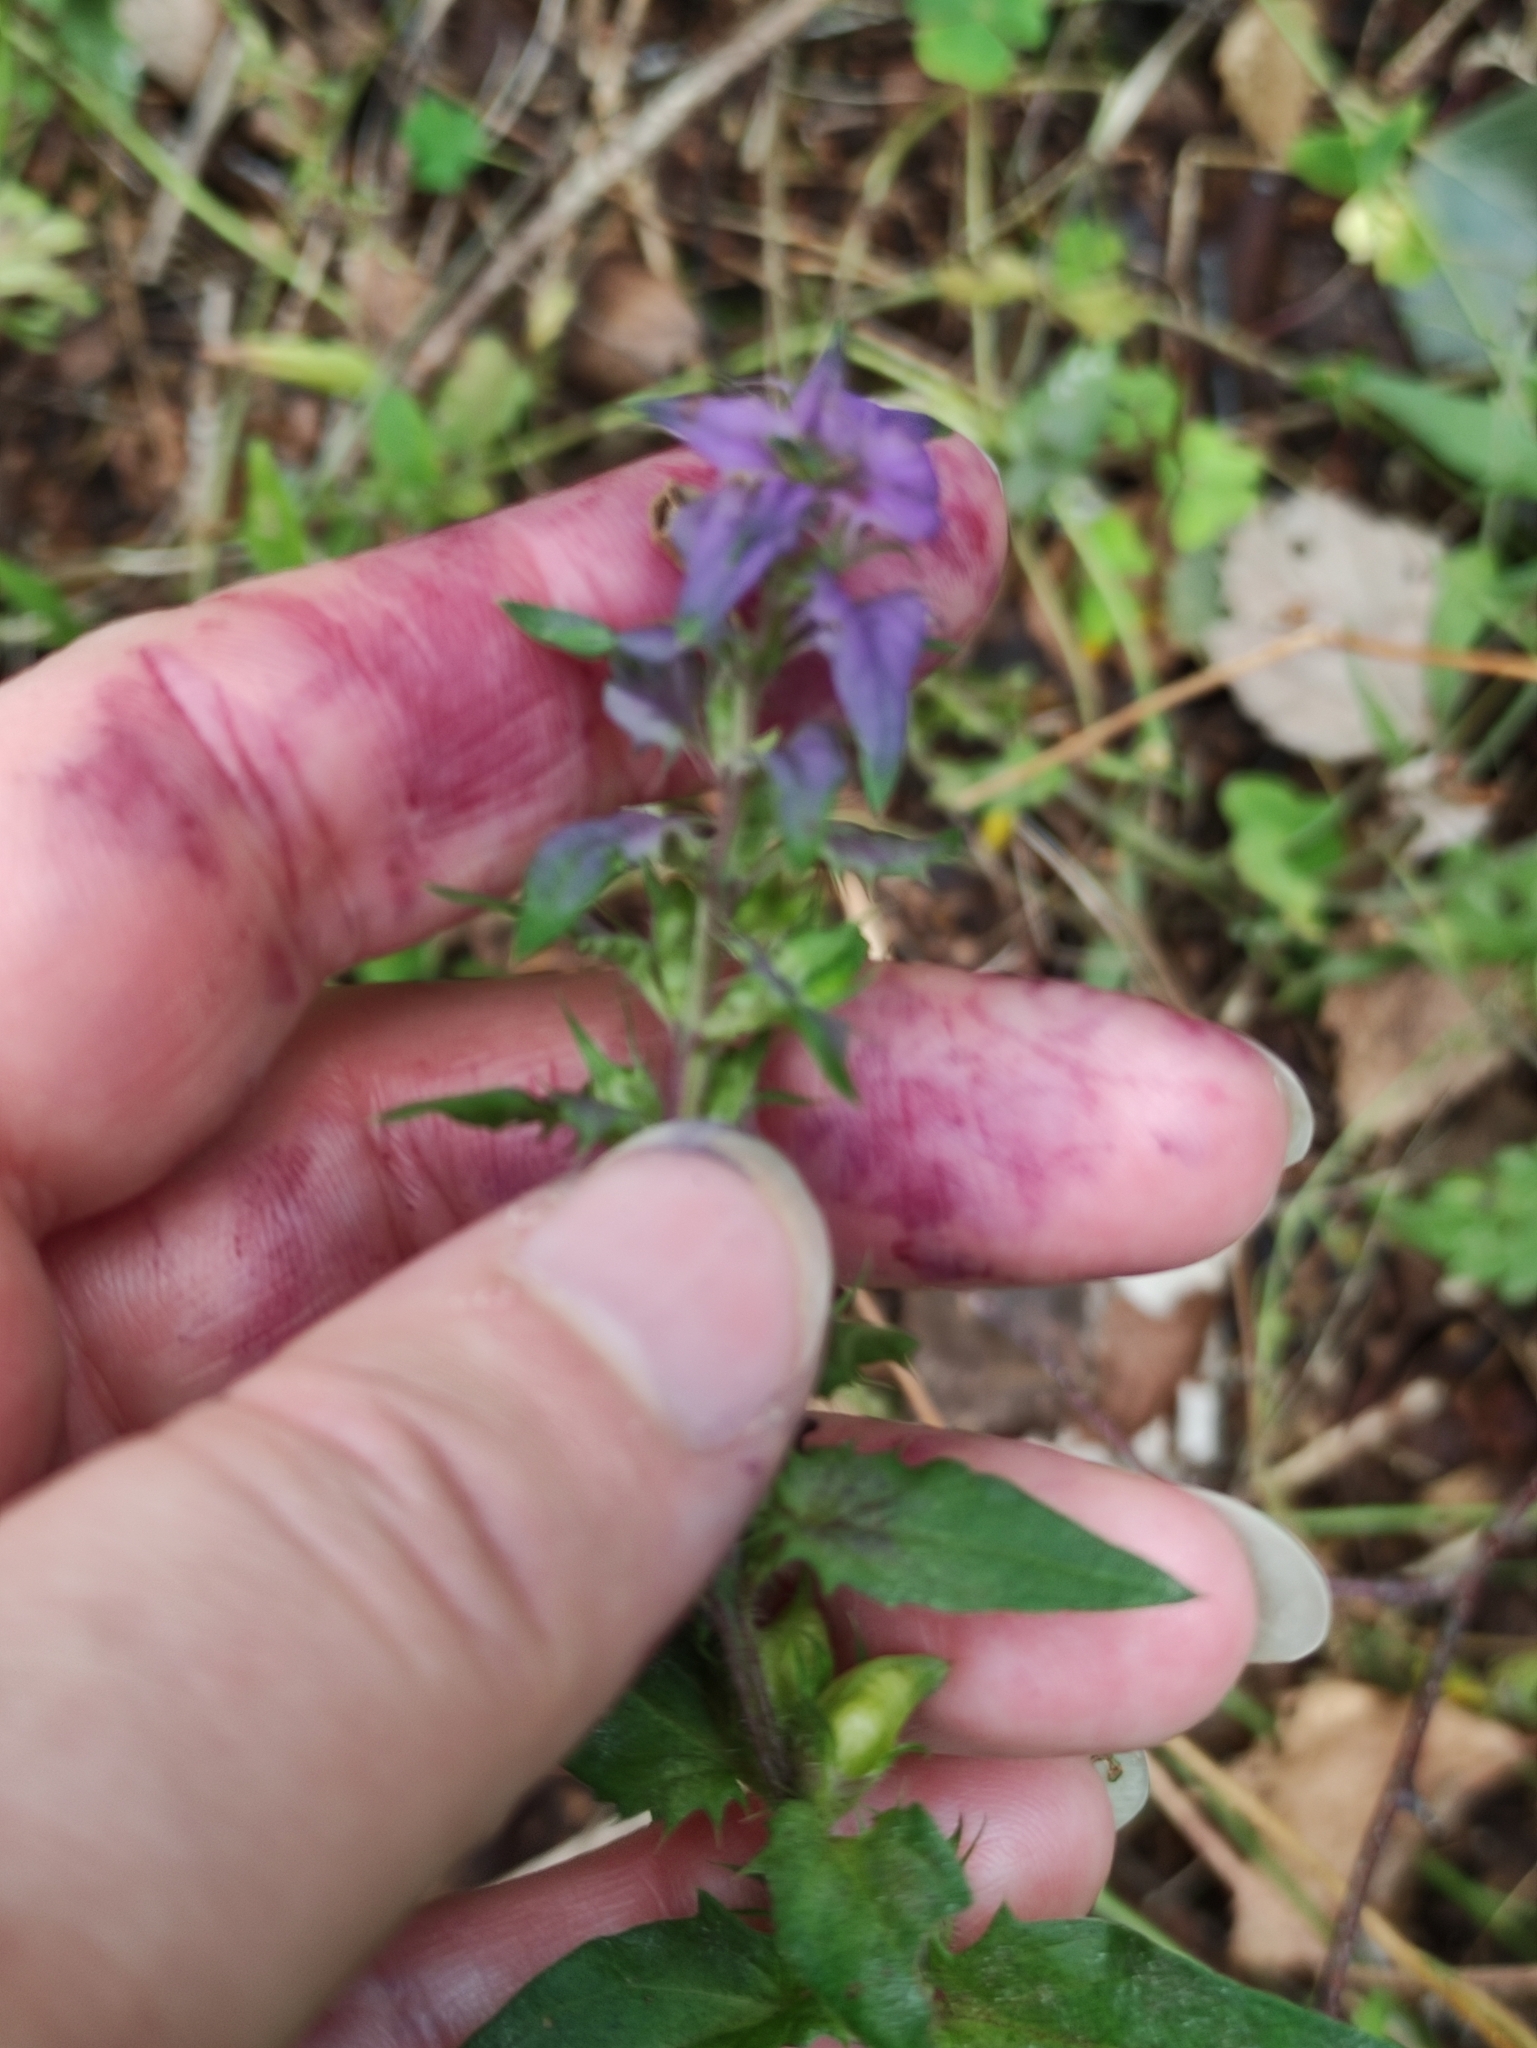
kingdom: Plantae
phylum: Tracheophyta
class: Magnoliopsida
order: Lamiales
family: Orobanchaceae
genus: Melampyrum
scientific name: Melampyrum nemorosum
